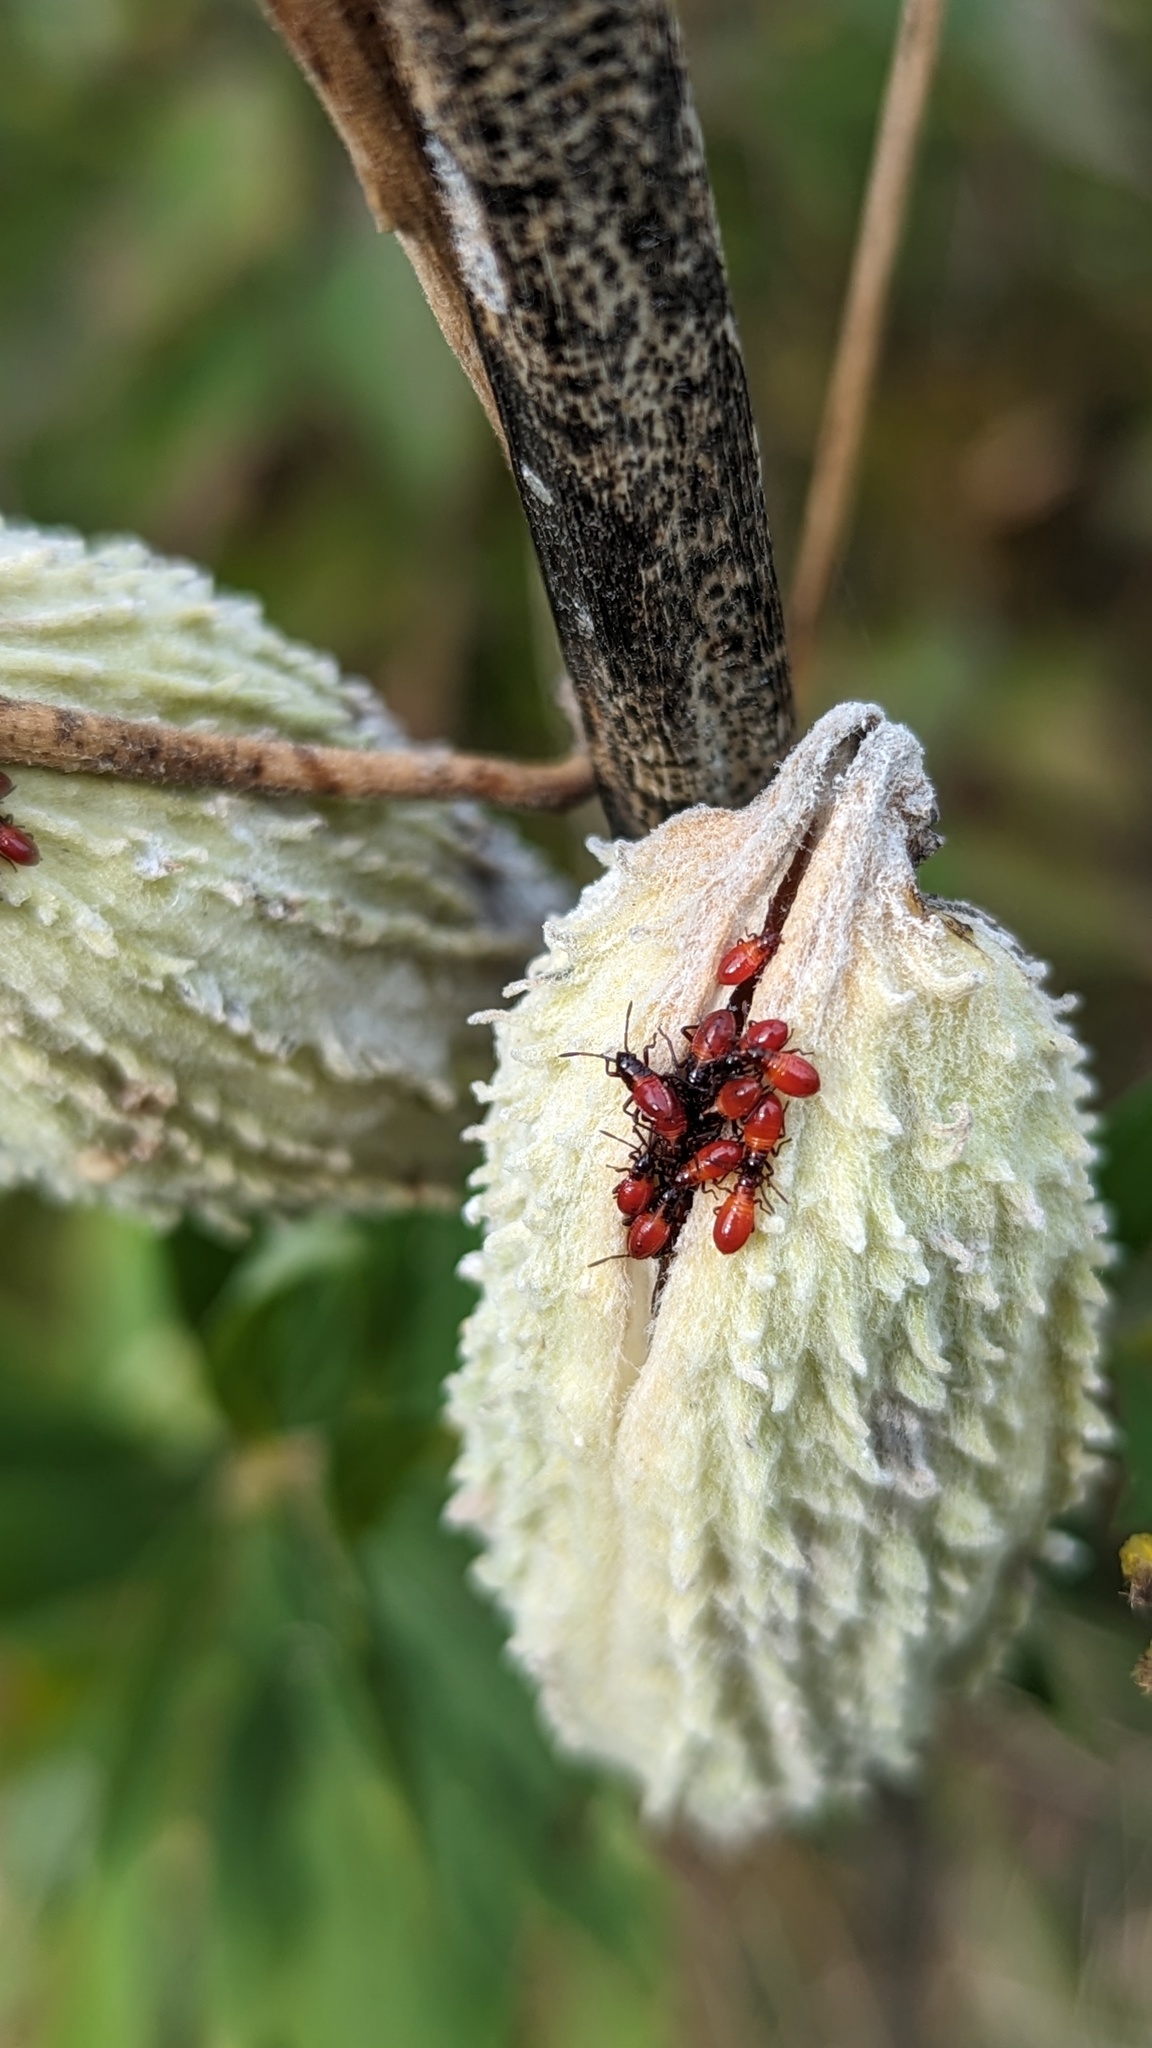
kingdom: Animalia
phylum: Arthropoda
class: Insecta
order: Hemiptera
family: Lygaeidae
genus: Oncopeltus
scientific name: Oncopeltus fasciatus
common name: Large milkweed bug
